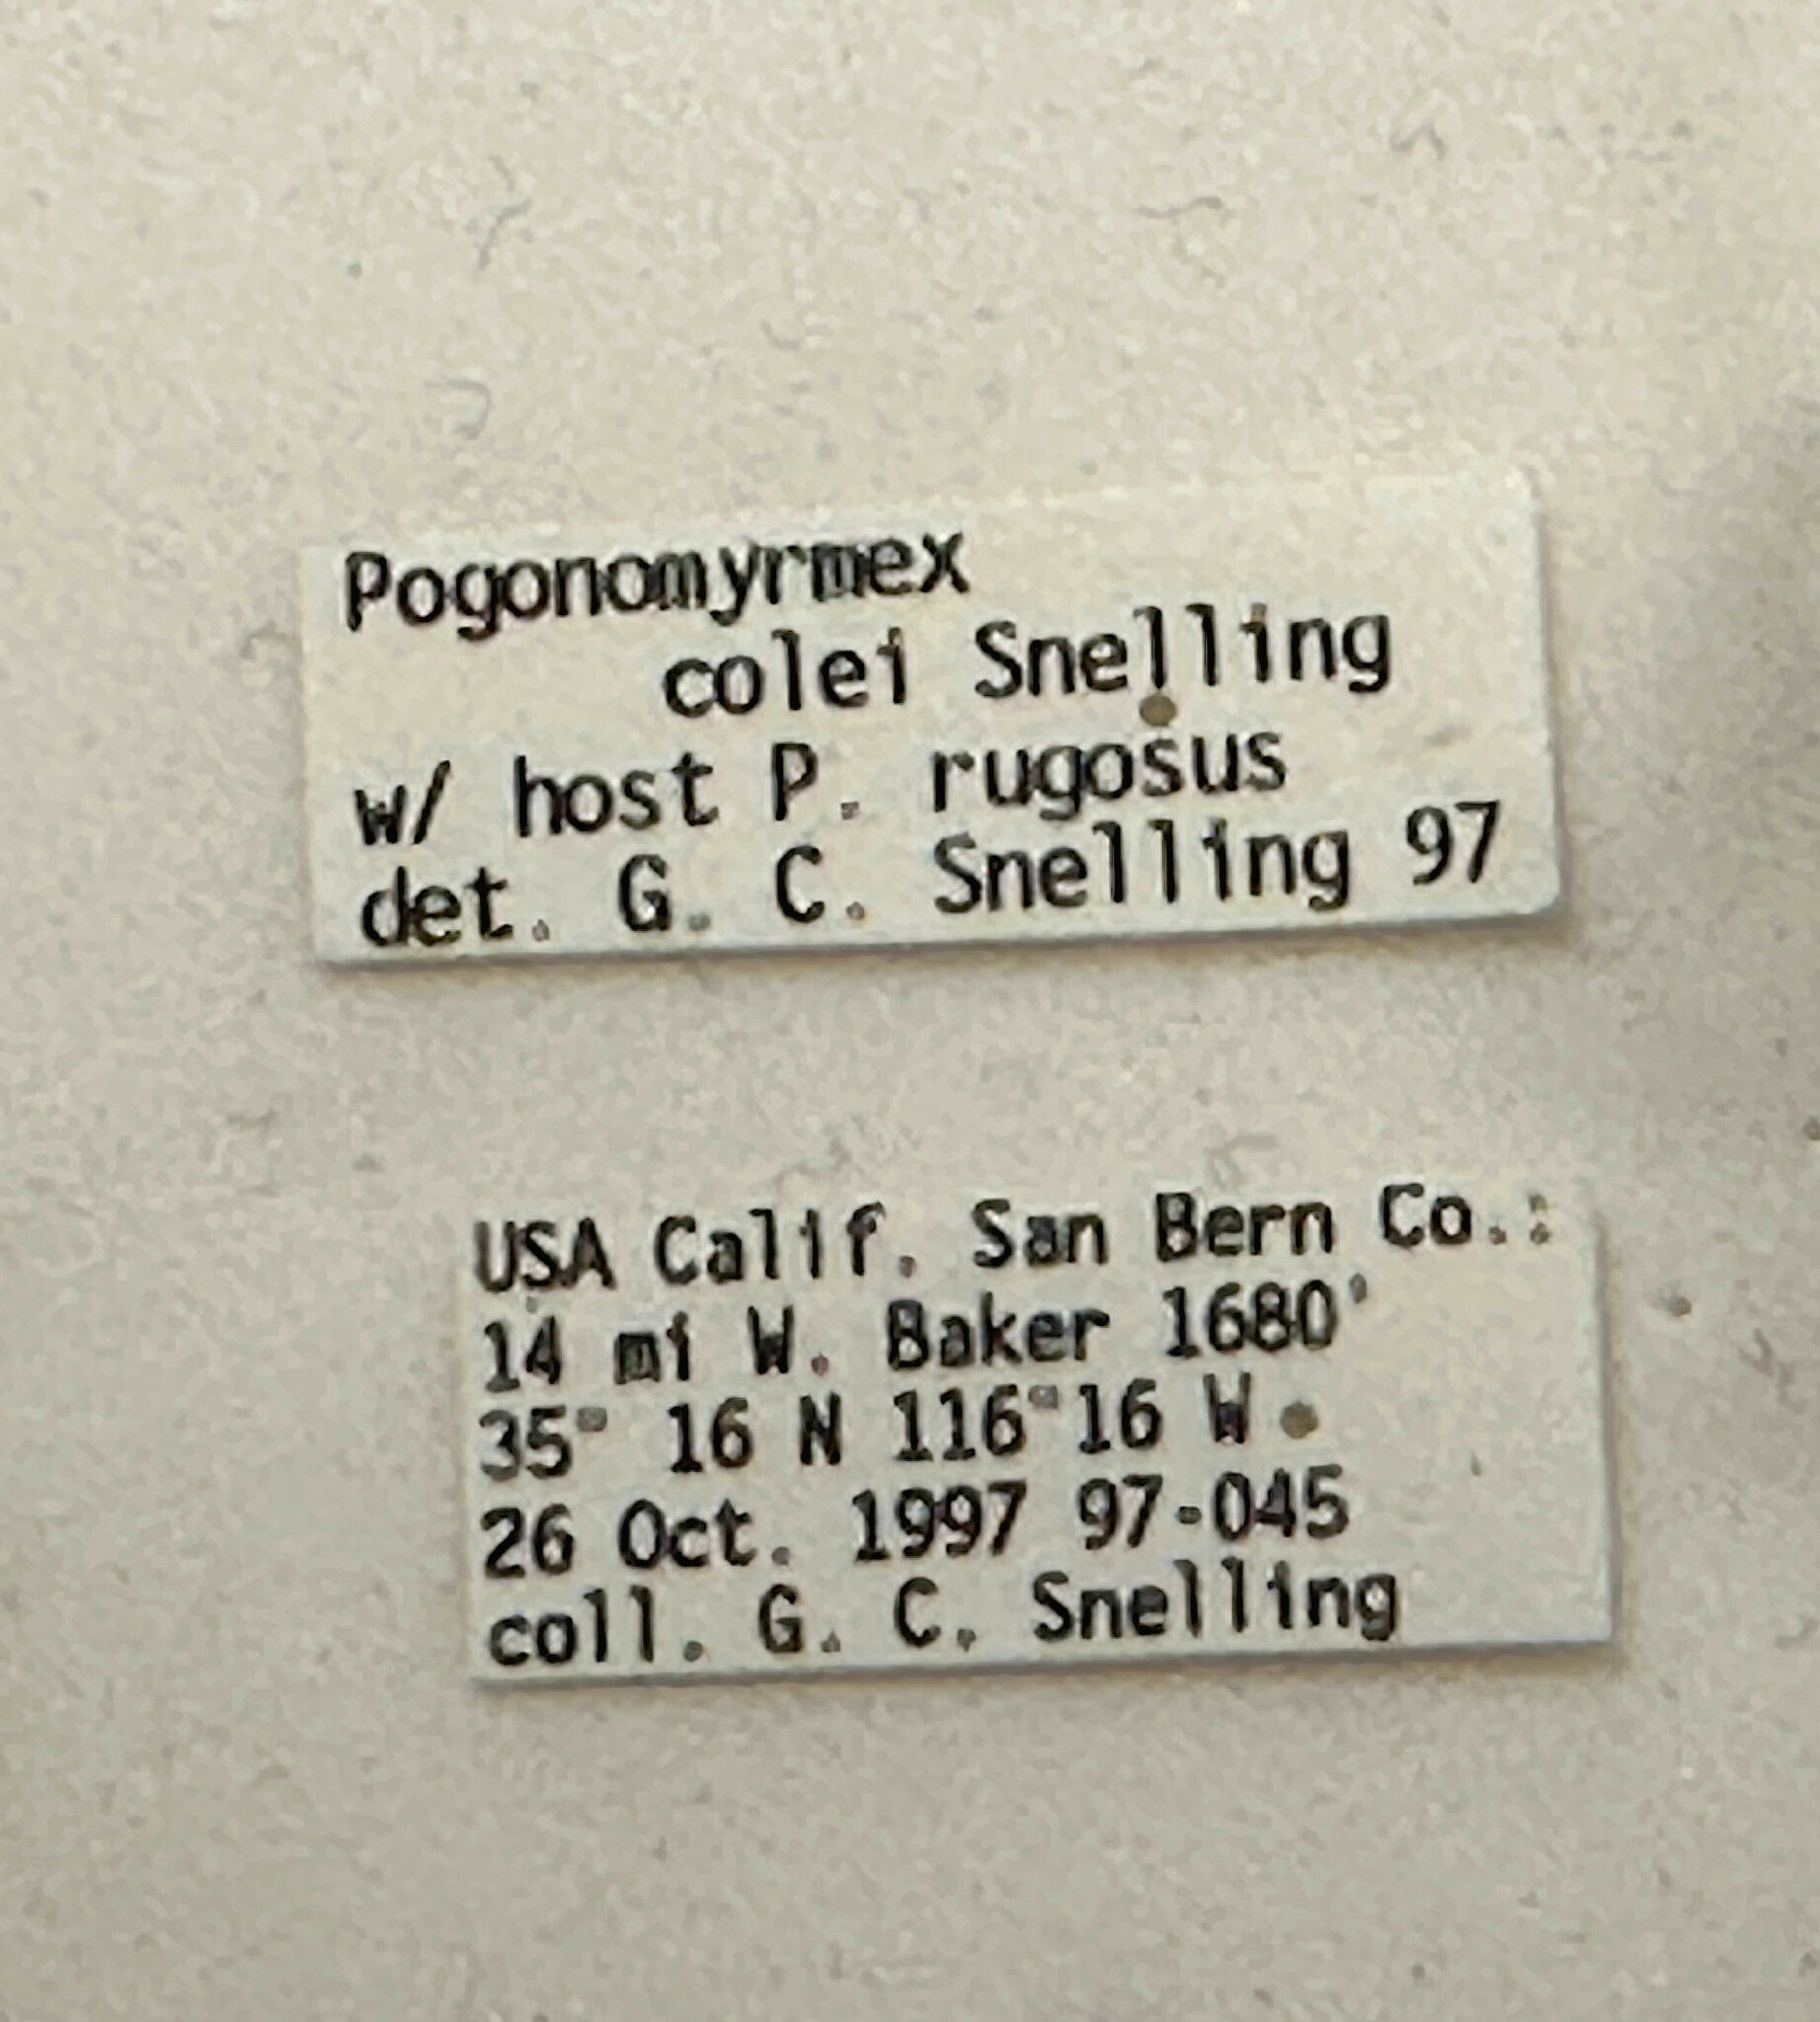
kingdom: Animalia
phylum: Arthropoda
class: Insecta
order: Hymenoptera
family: Formicidae
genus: Pogonomyrmex
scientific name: Pogonomyrmex colei
